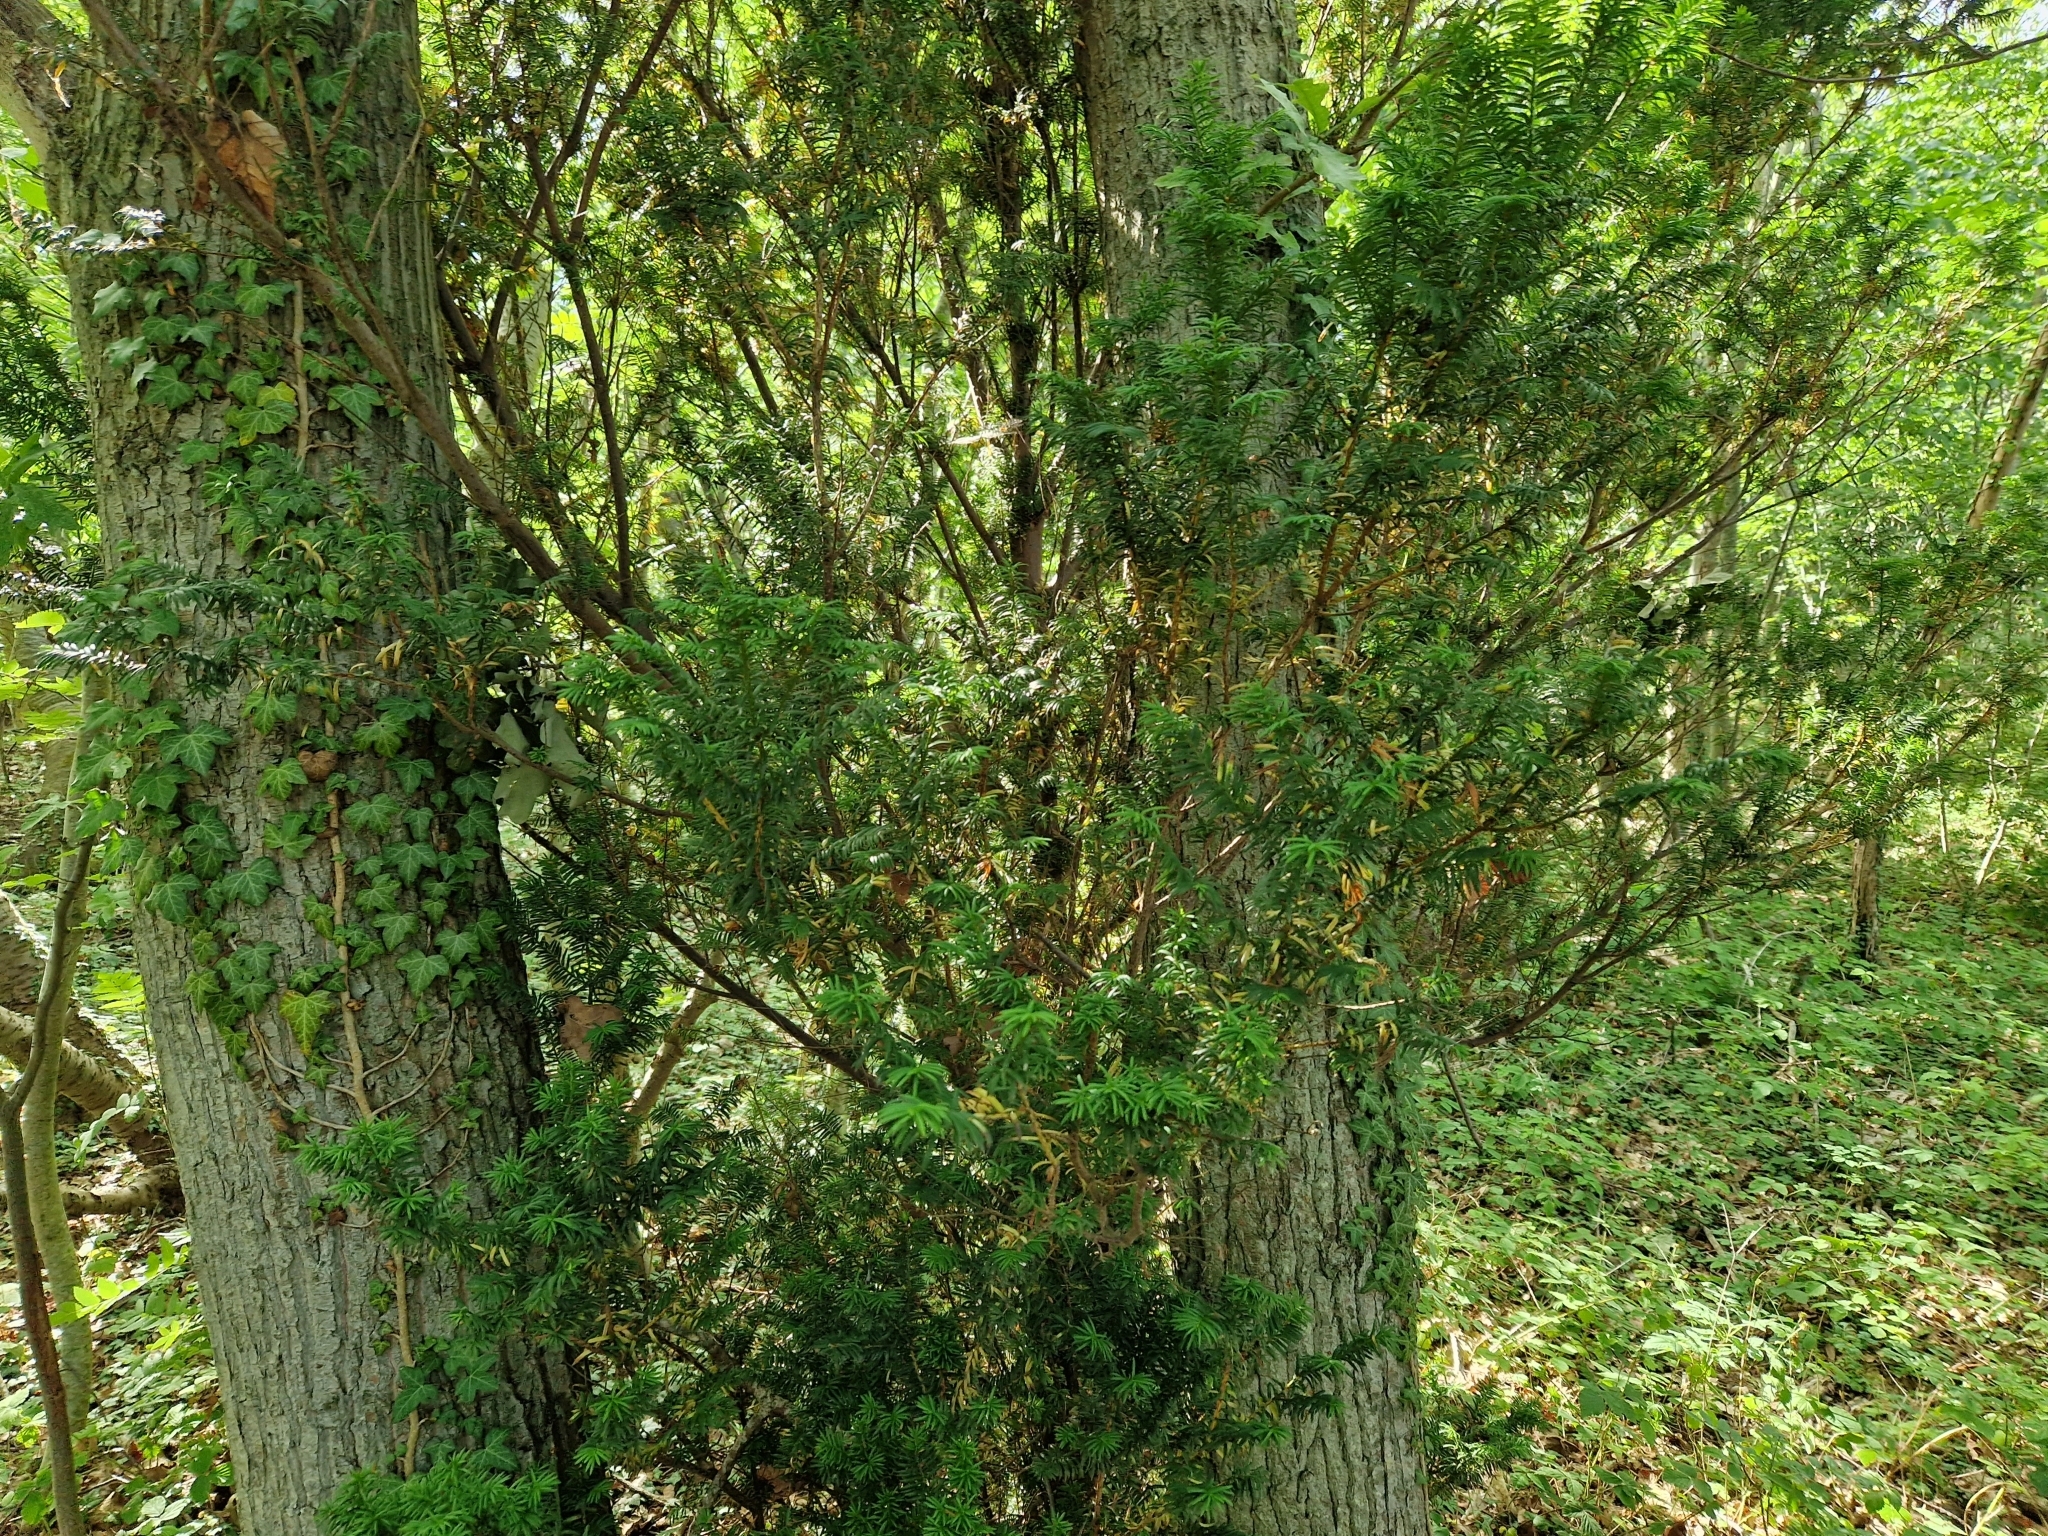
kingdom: Plantae
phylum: Tracheophyta
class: Pinopsida
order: Pinales
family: Taxaceae
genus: Taxus
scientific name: Taxus baccata
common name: Yew
